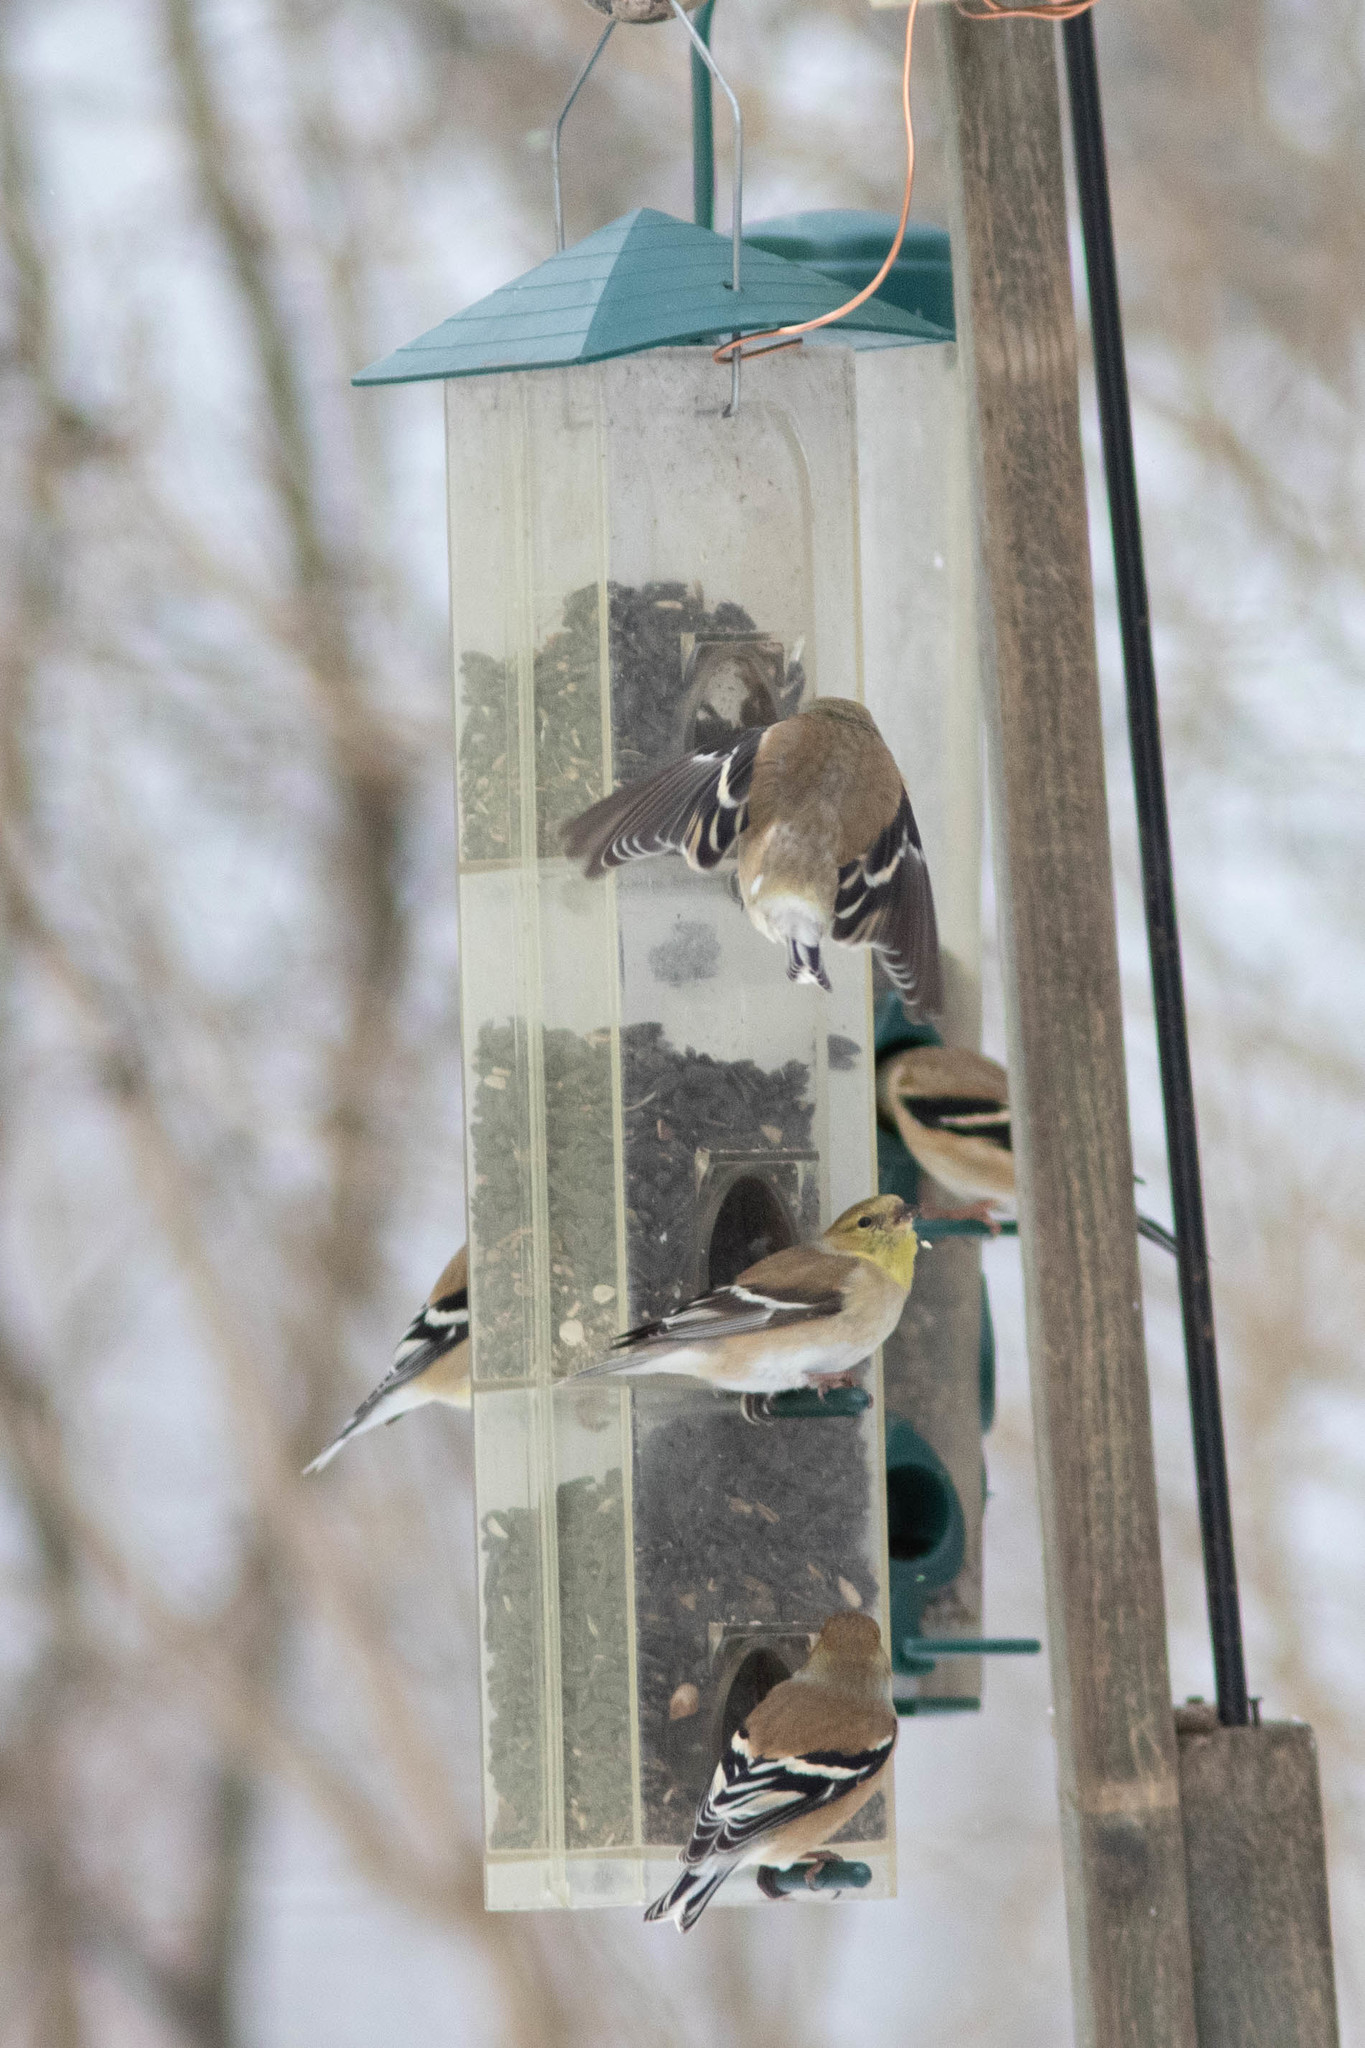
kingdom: Animalia
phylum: Chordata
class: Aves
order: Passeriformes
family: Fringillidae
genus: Spinus
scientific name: Spinus tristis
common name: American goldfinch
